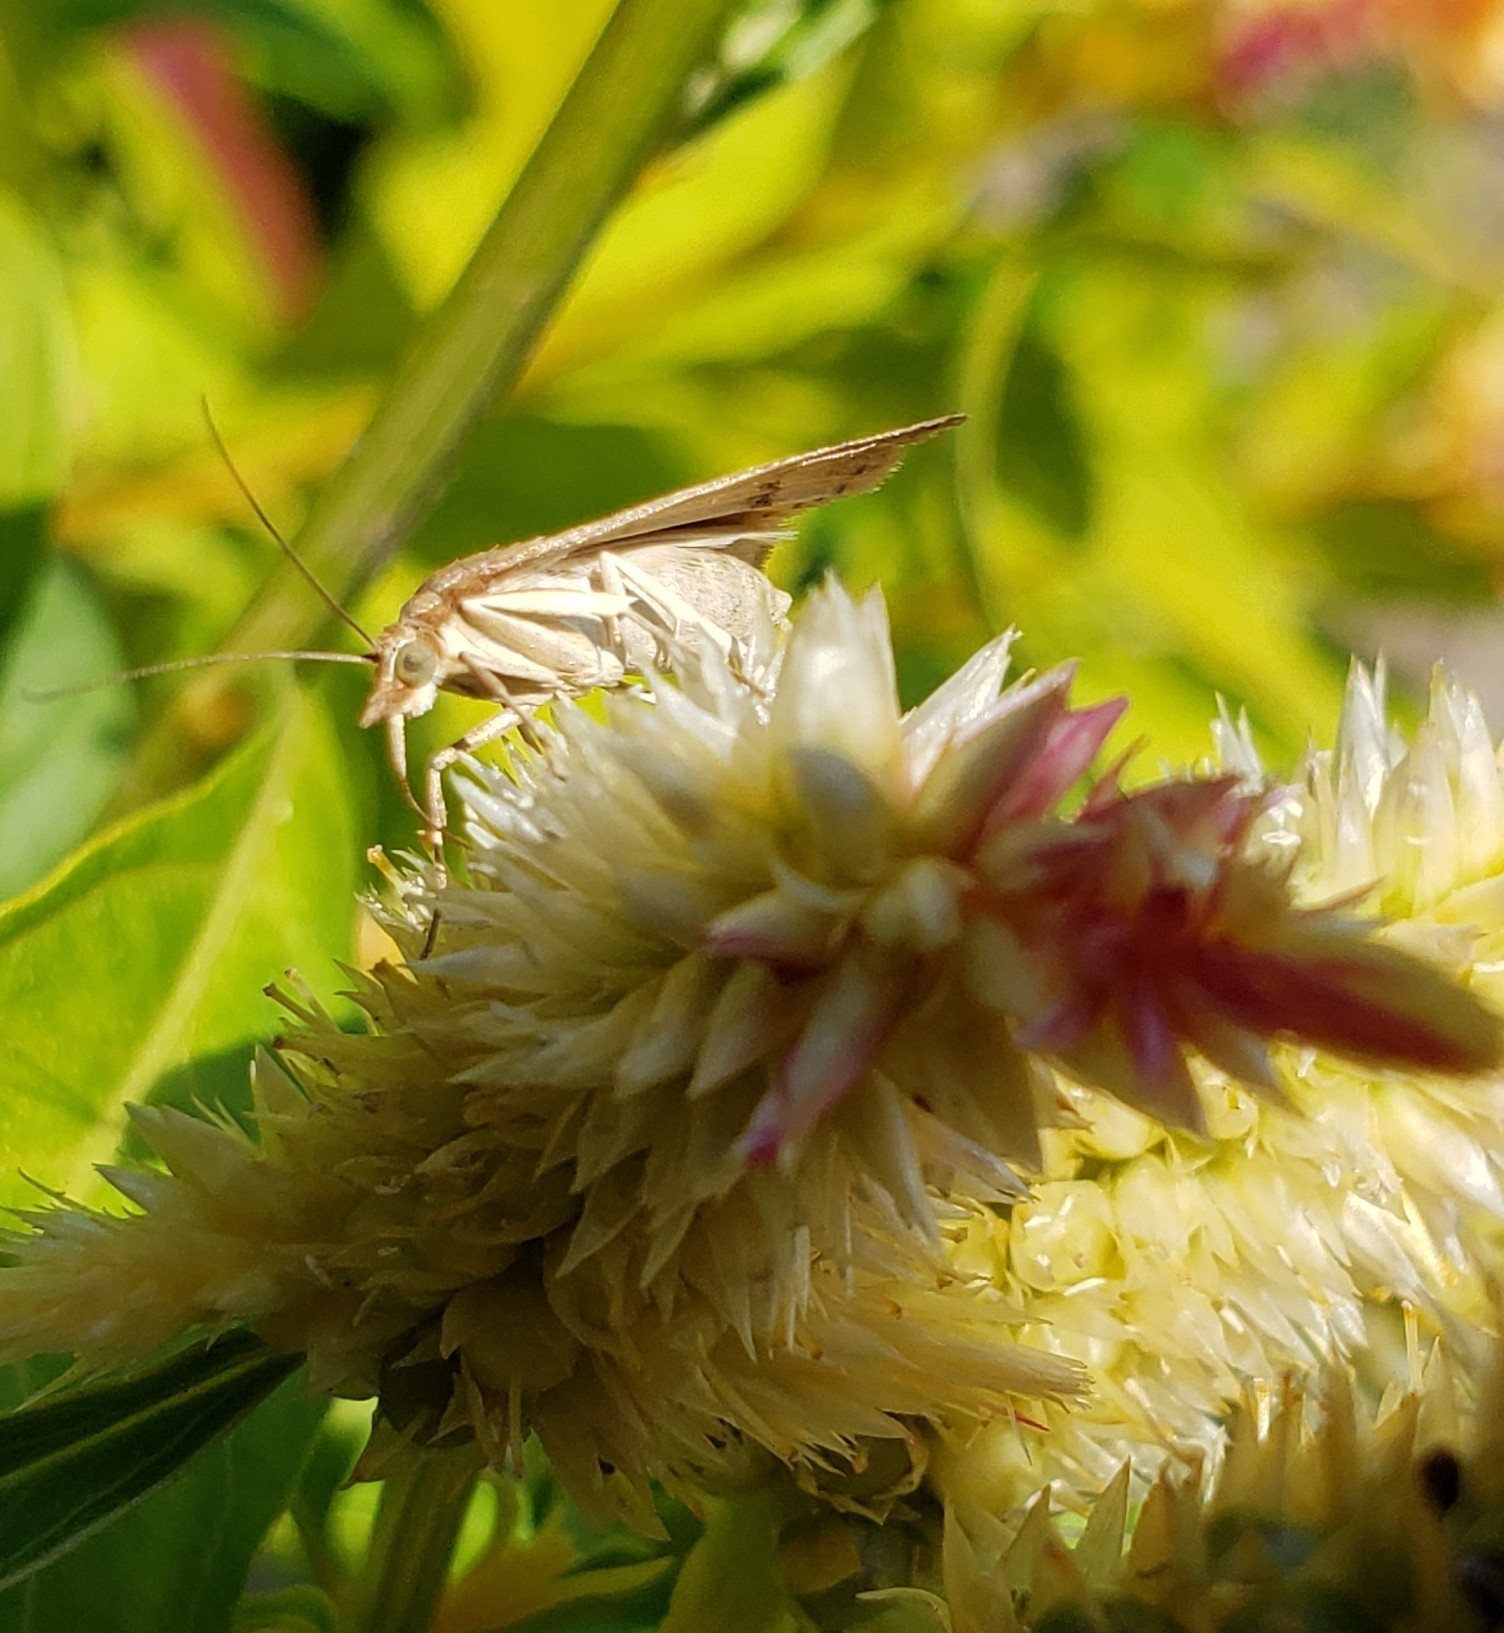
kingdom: Animalia
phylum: Arthropoda
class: Insecta
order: Lepidoptera
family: Crambidae
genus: Achyra
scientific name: Achyra rantalis
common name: Garden webworm
